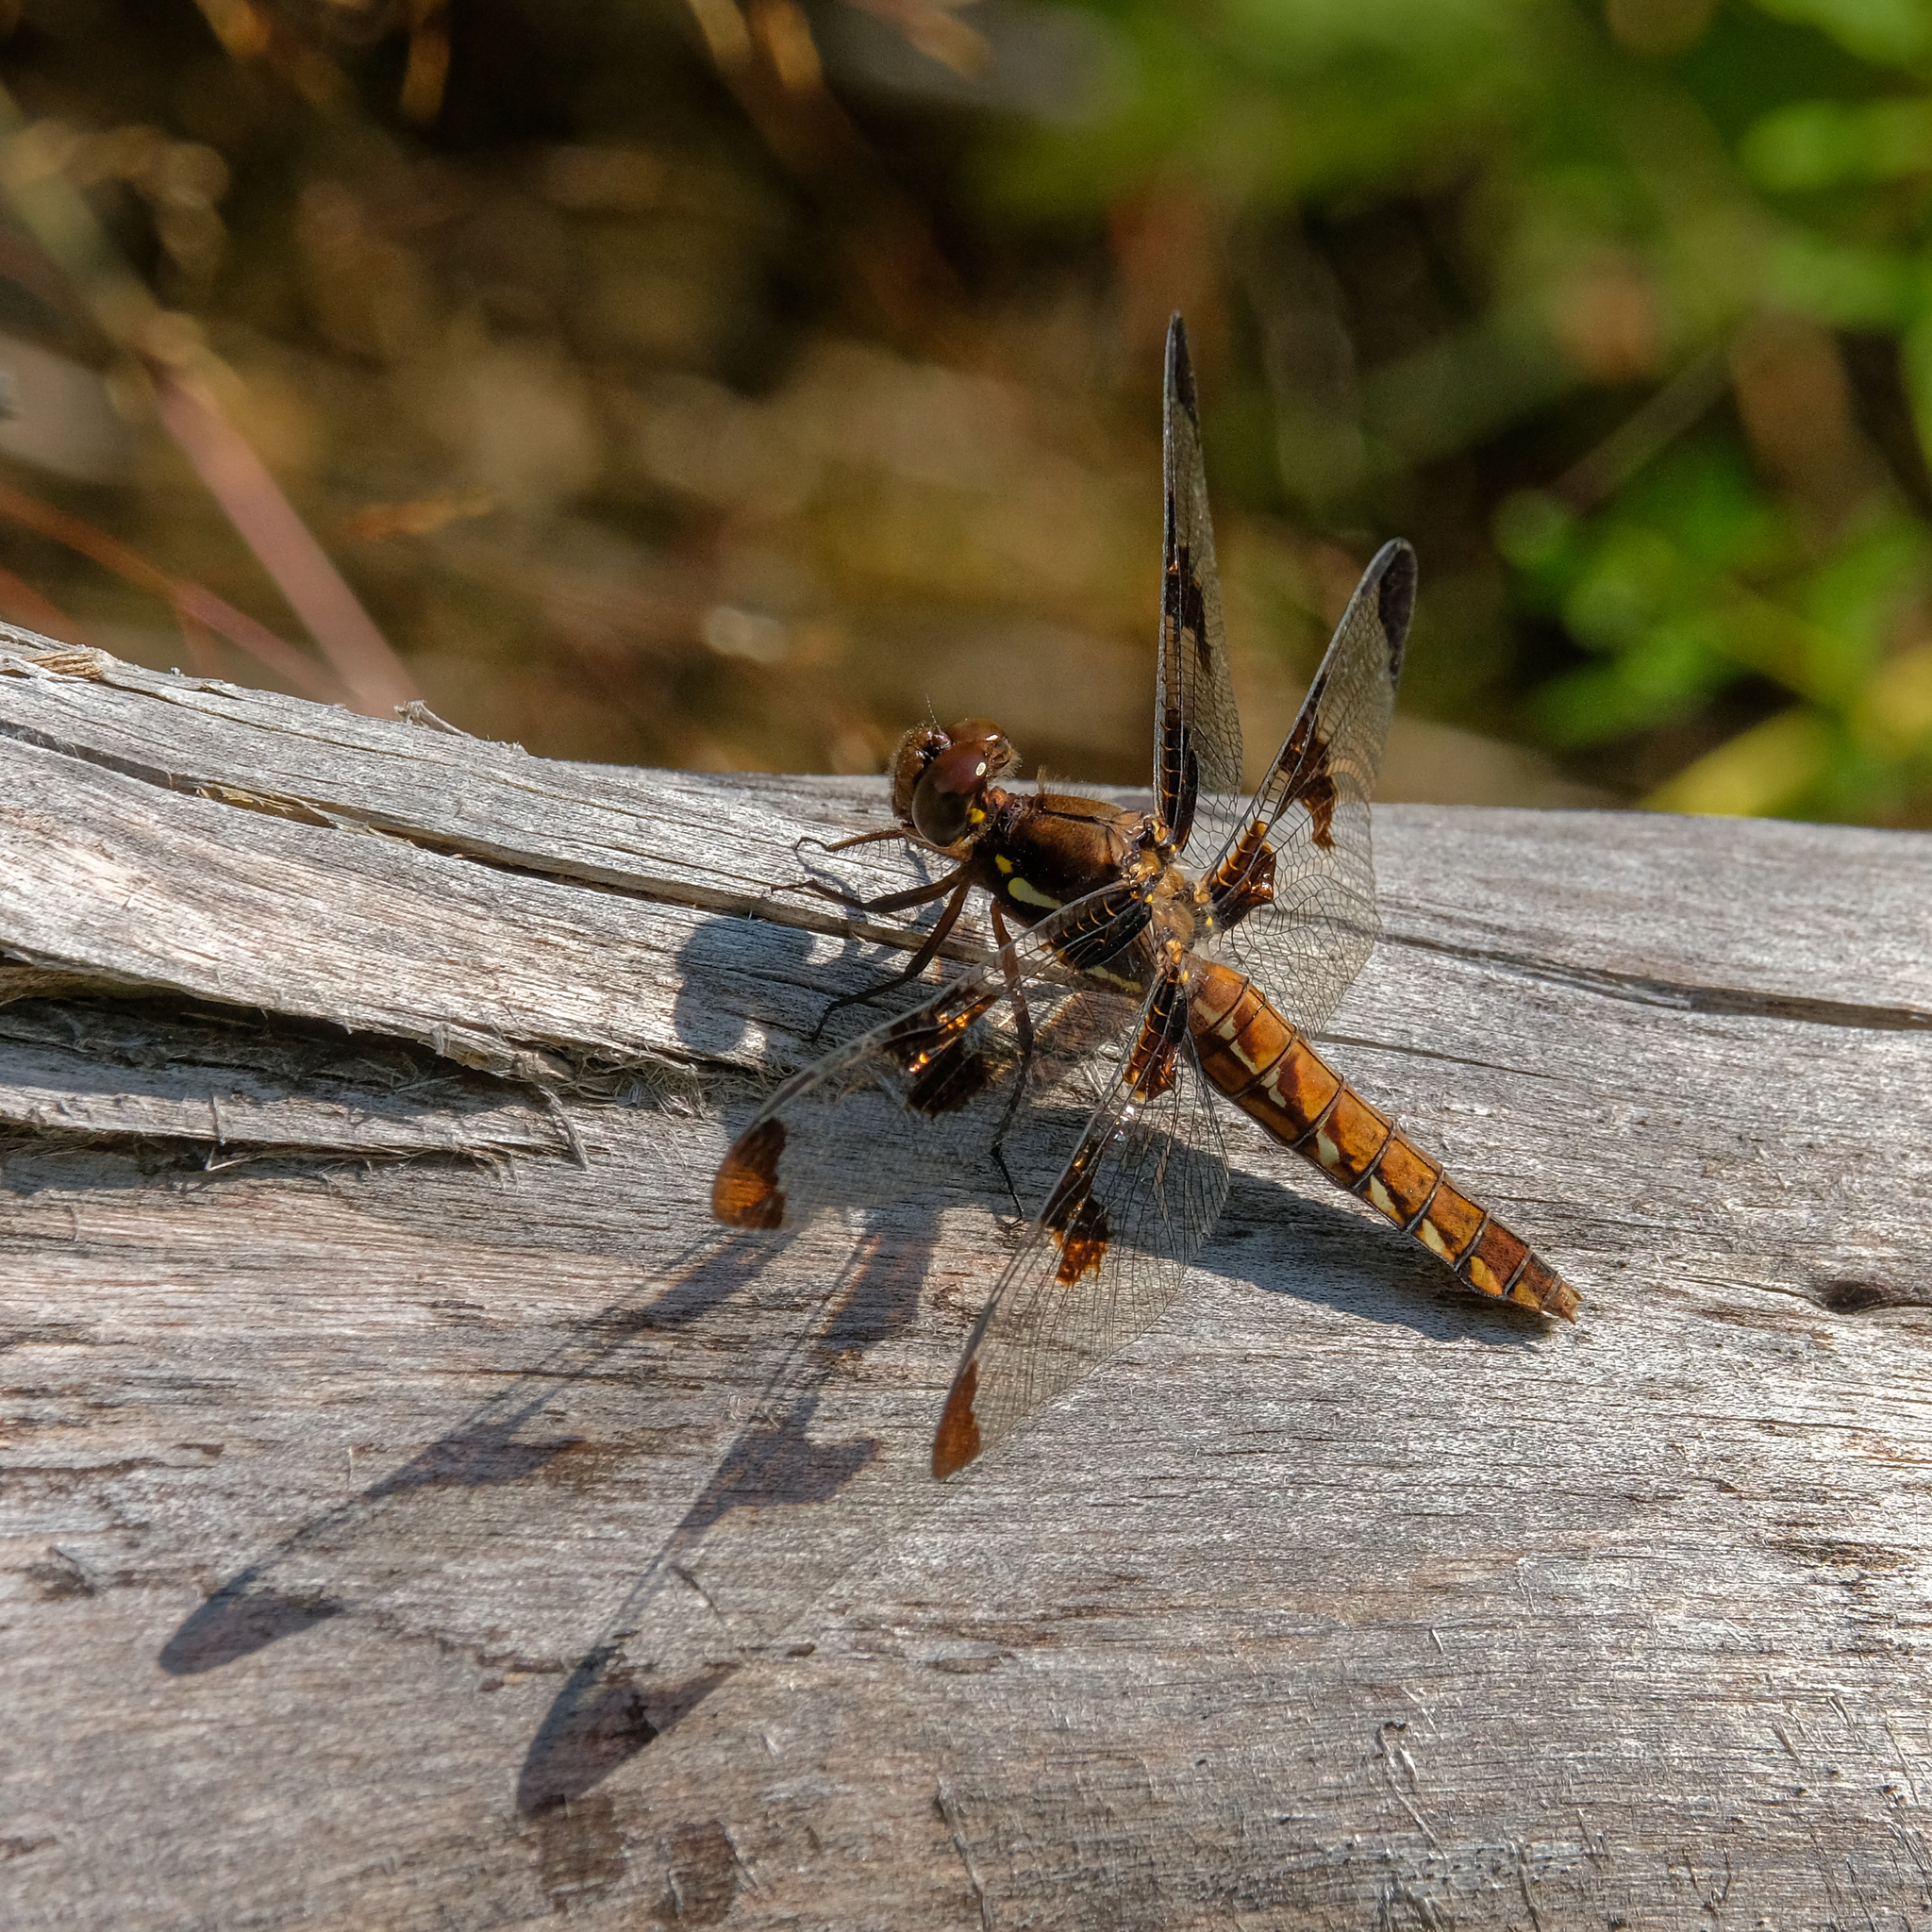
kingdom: Animalia
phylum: Arthropoda
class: Insecta
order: Odonata
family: Libellulidae
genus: Plathemis
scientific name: Plathemis lydia
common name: Common whitetail
